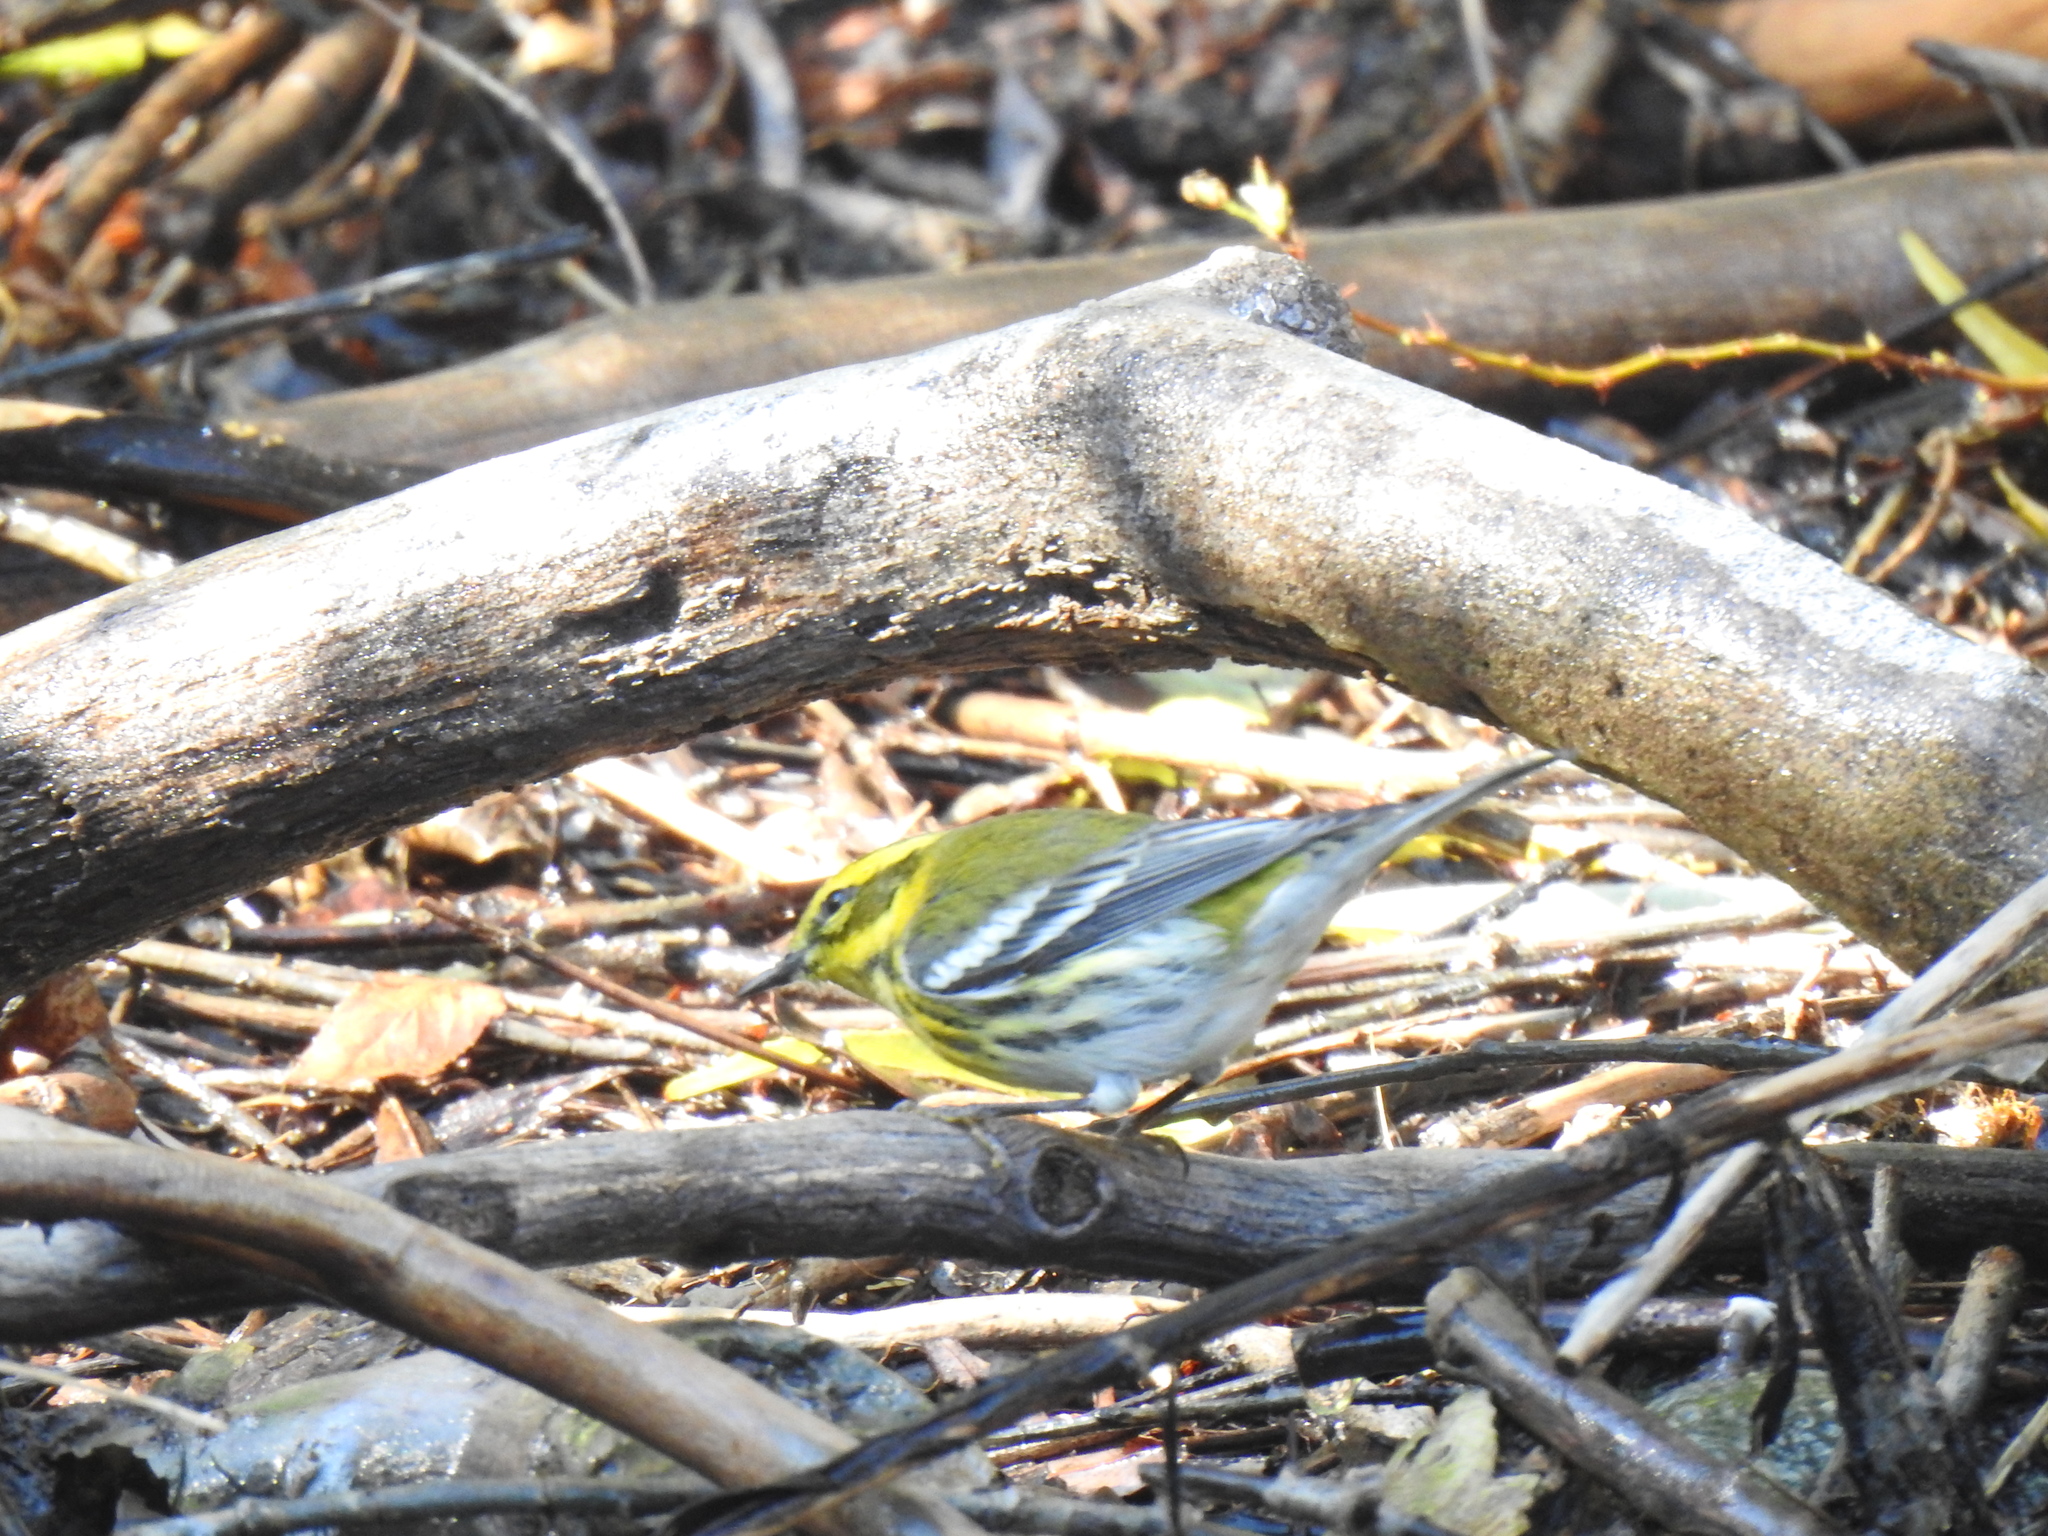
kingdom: Animalia
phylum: Chordata
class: Aves
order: Passeriformes
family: Parulidae
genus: Setophaga
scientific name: Setophaga townsendi
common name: Townsend's warbler
